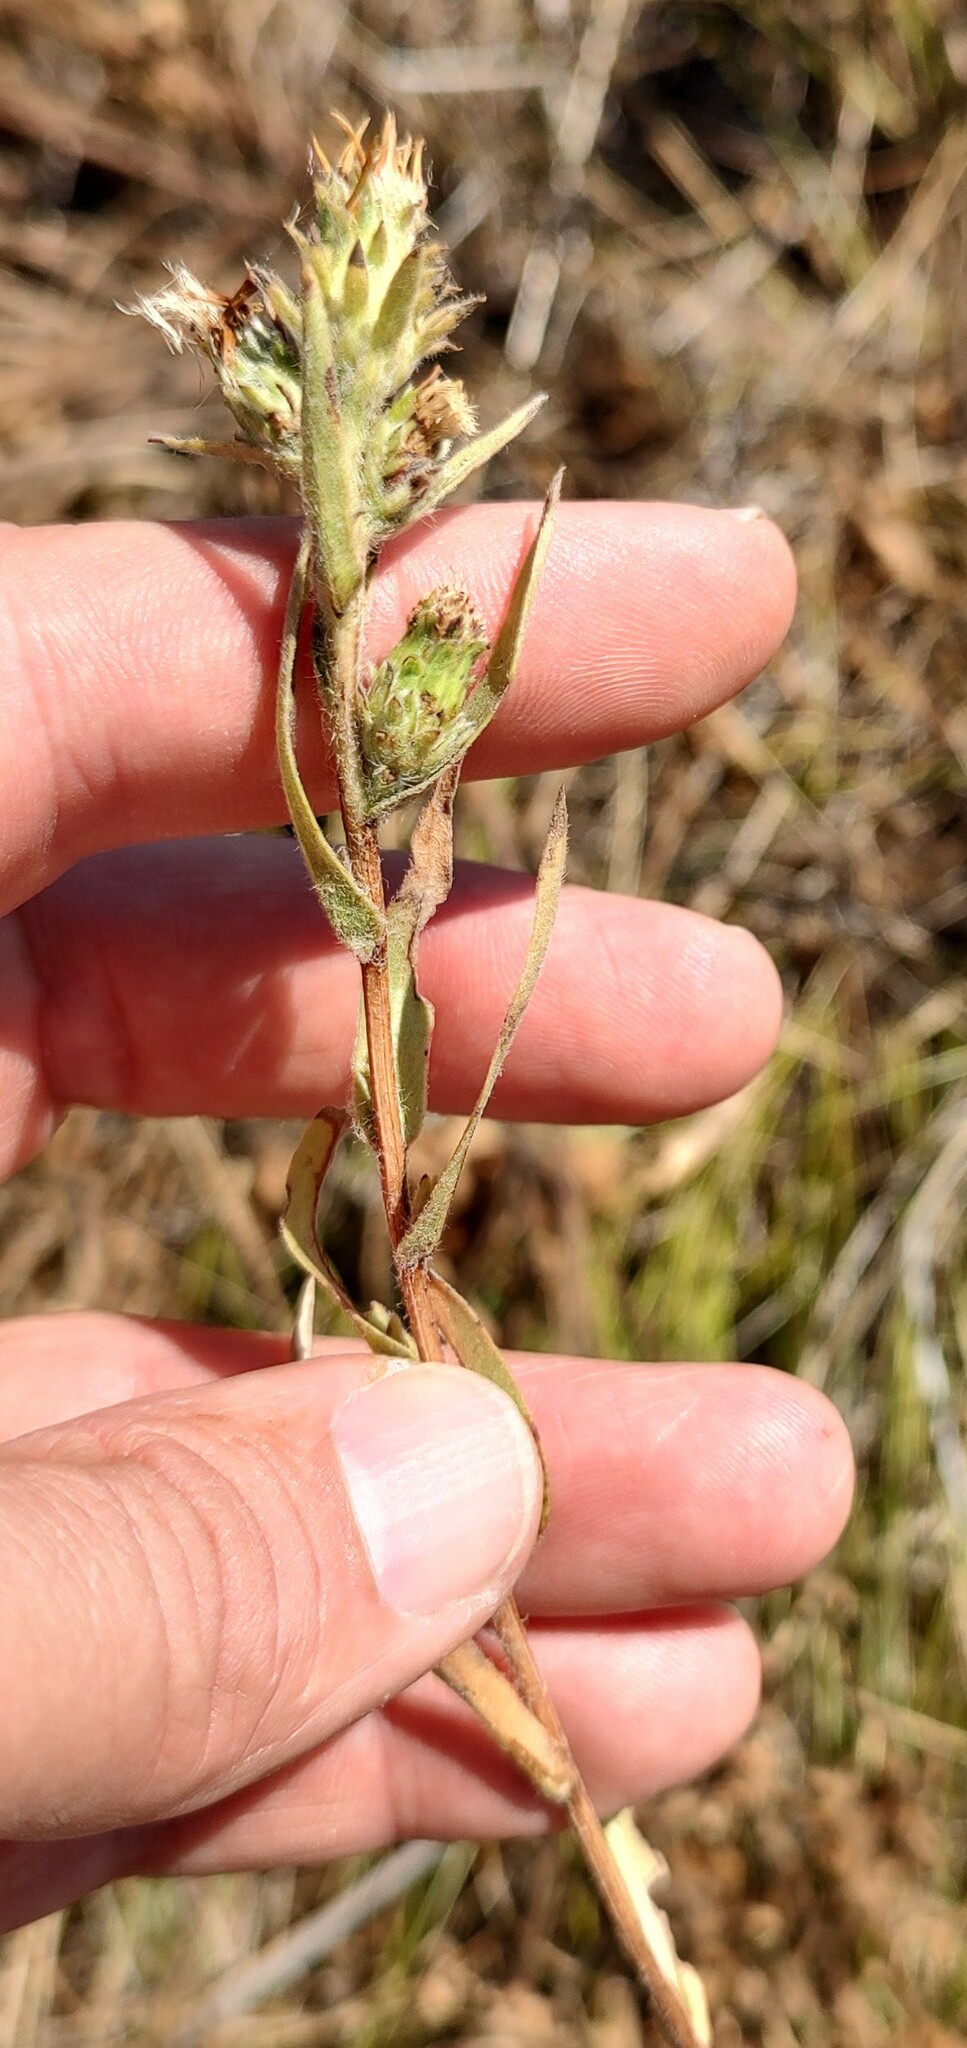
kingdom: Plantae
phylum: Tracheophyta
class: Magnoliopsida
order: Asterales
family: Asteraceae
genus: Pyrrocoma
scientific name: Pyrrocoma liatriformis
